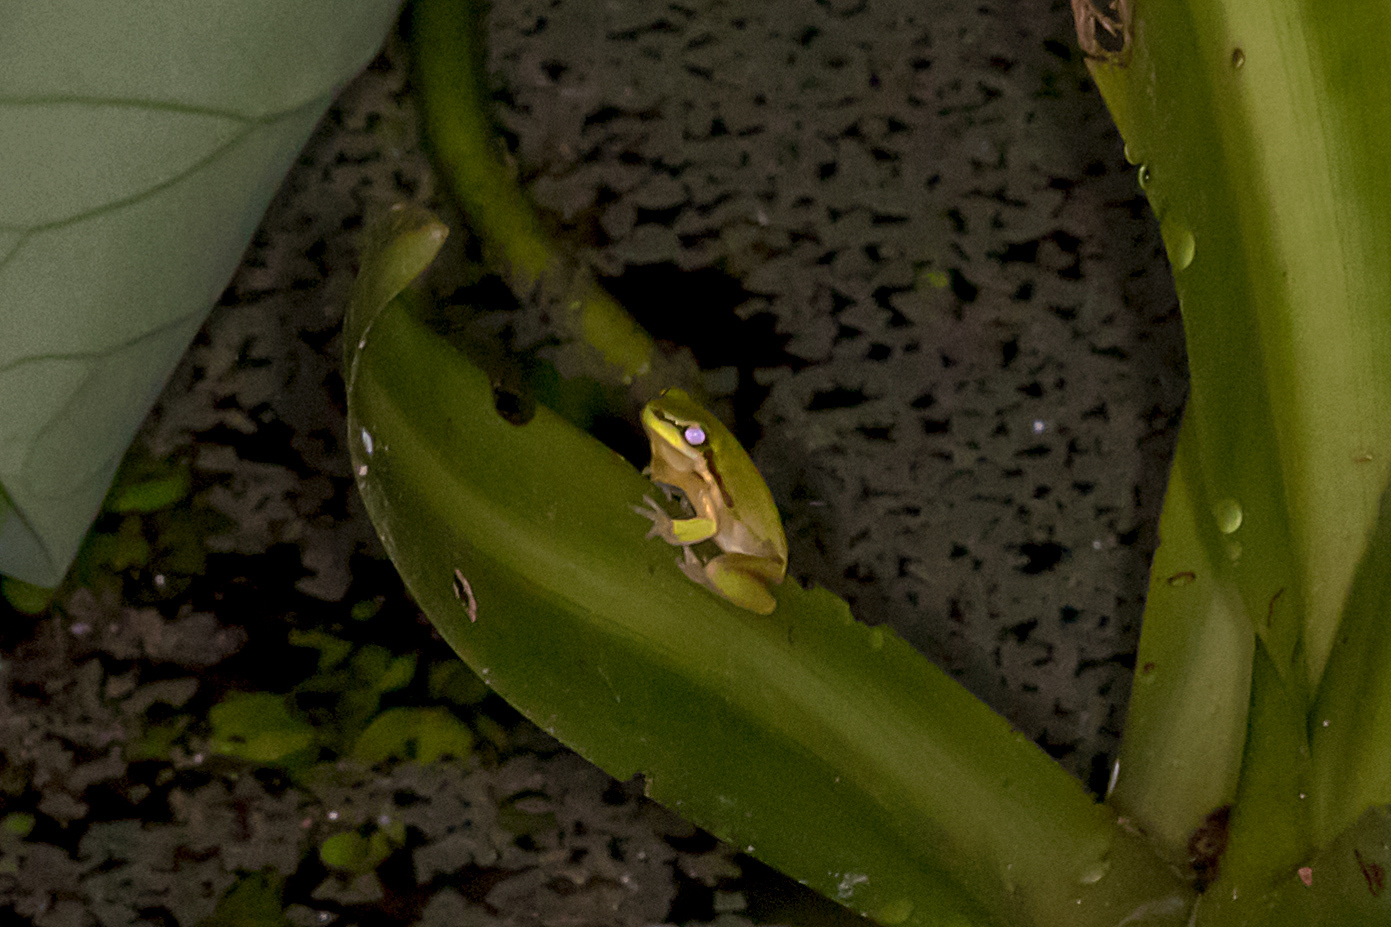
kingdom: Animalia
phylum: Chordata
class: Amphibia
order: Anura
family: Pelodryadidae
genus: Litoria
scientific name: Litoria fallax
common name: Eastern dwarf treefrog
